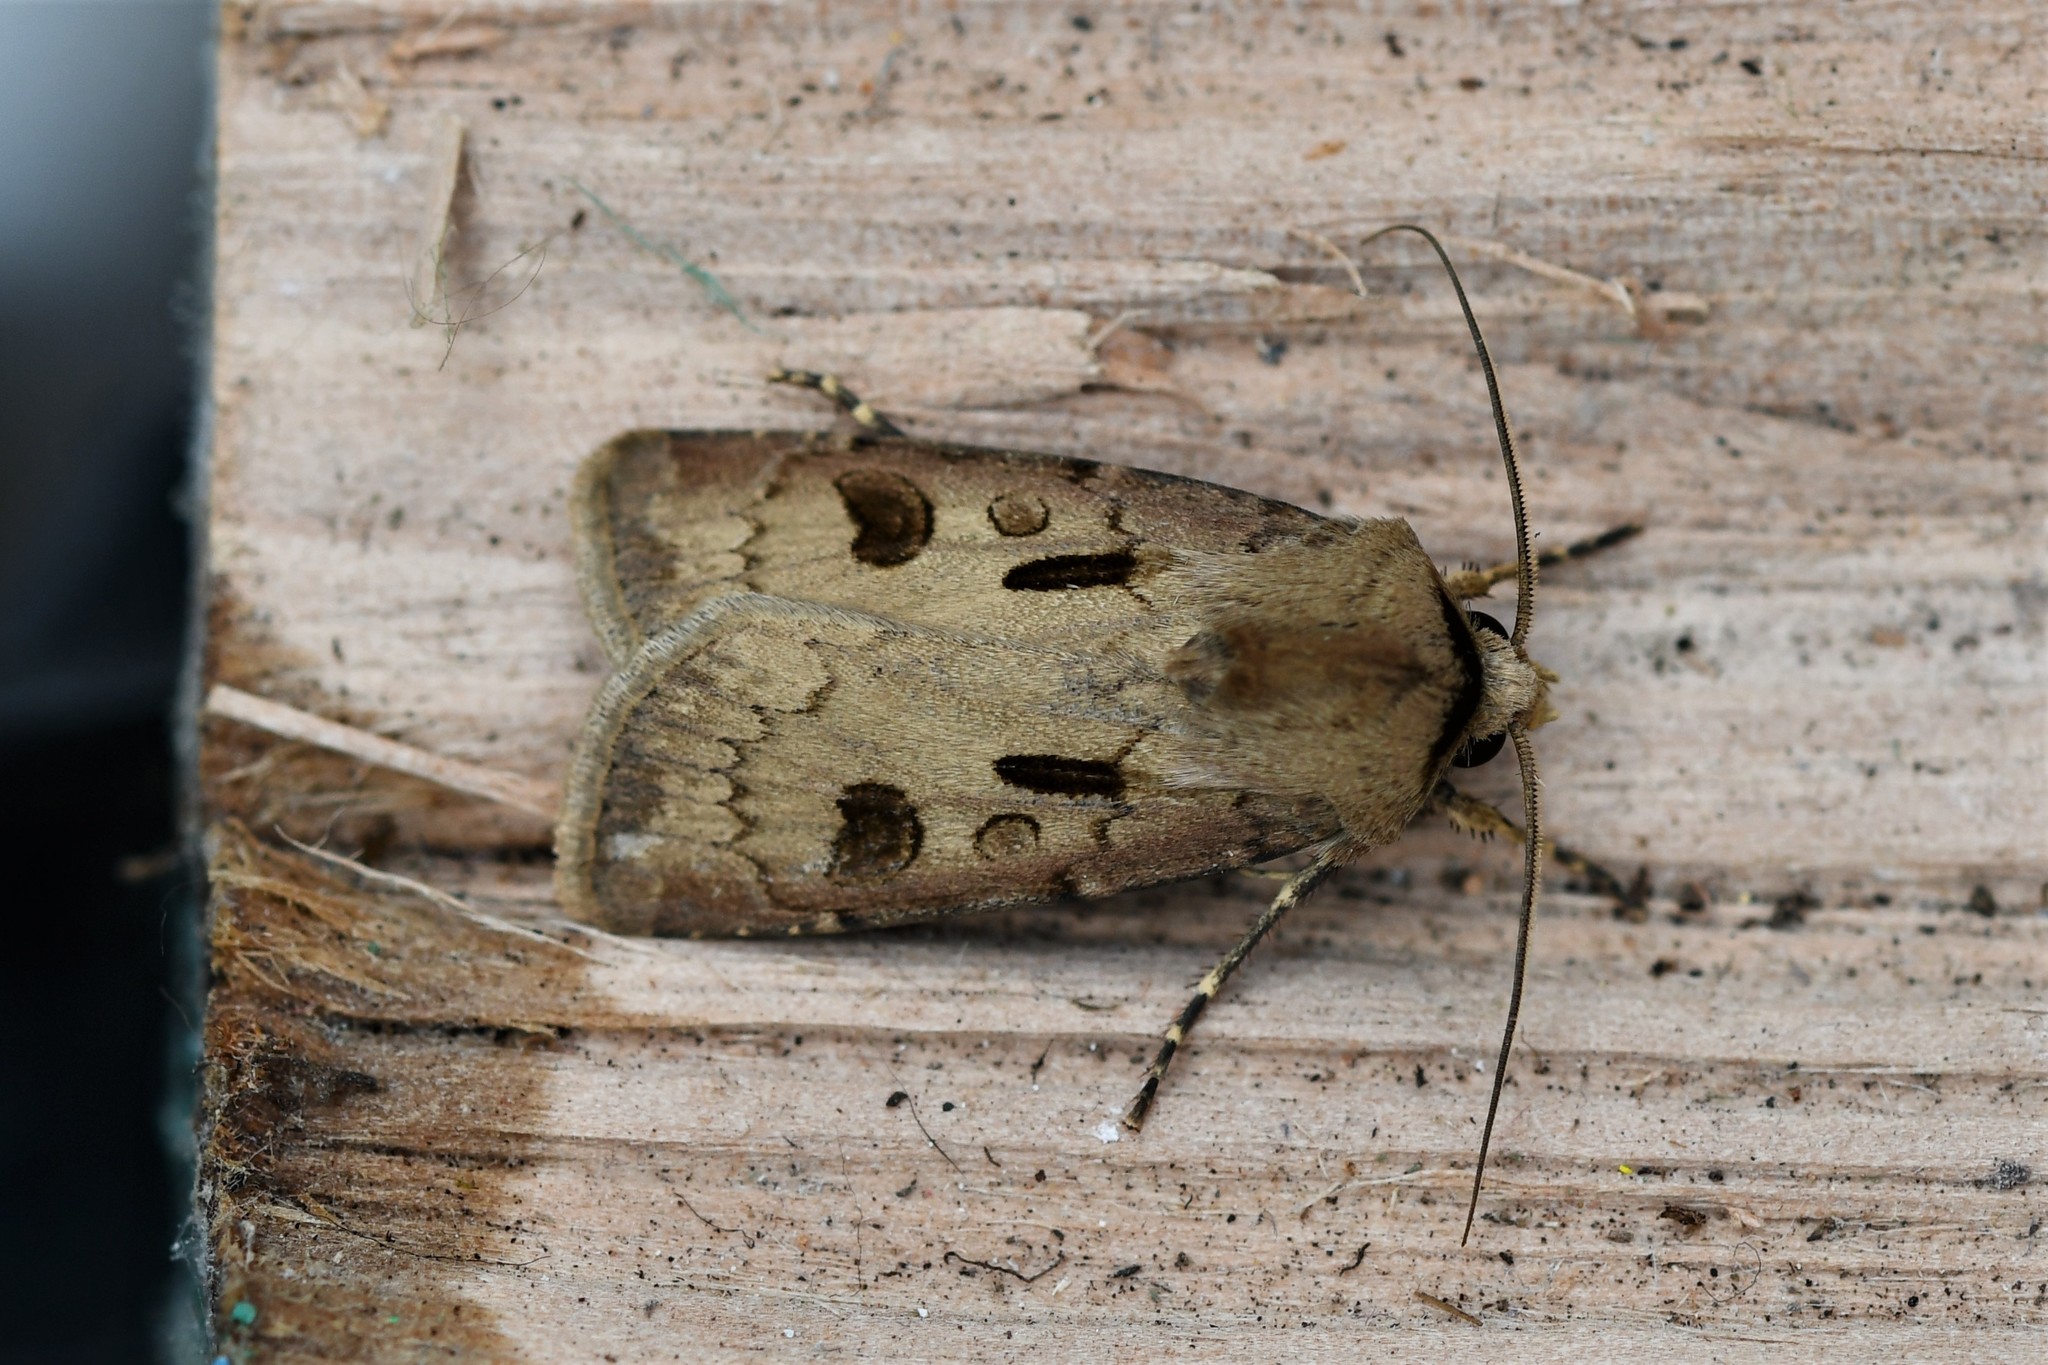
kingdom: Animalia
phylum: Arthropoda
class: Insecta
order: Lepidoptera
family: Noctuidae
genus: Agrotis
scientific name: Agrotis exclamationis
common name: Heart and dart
